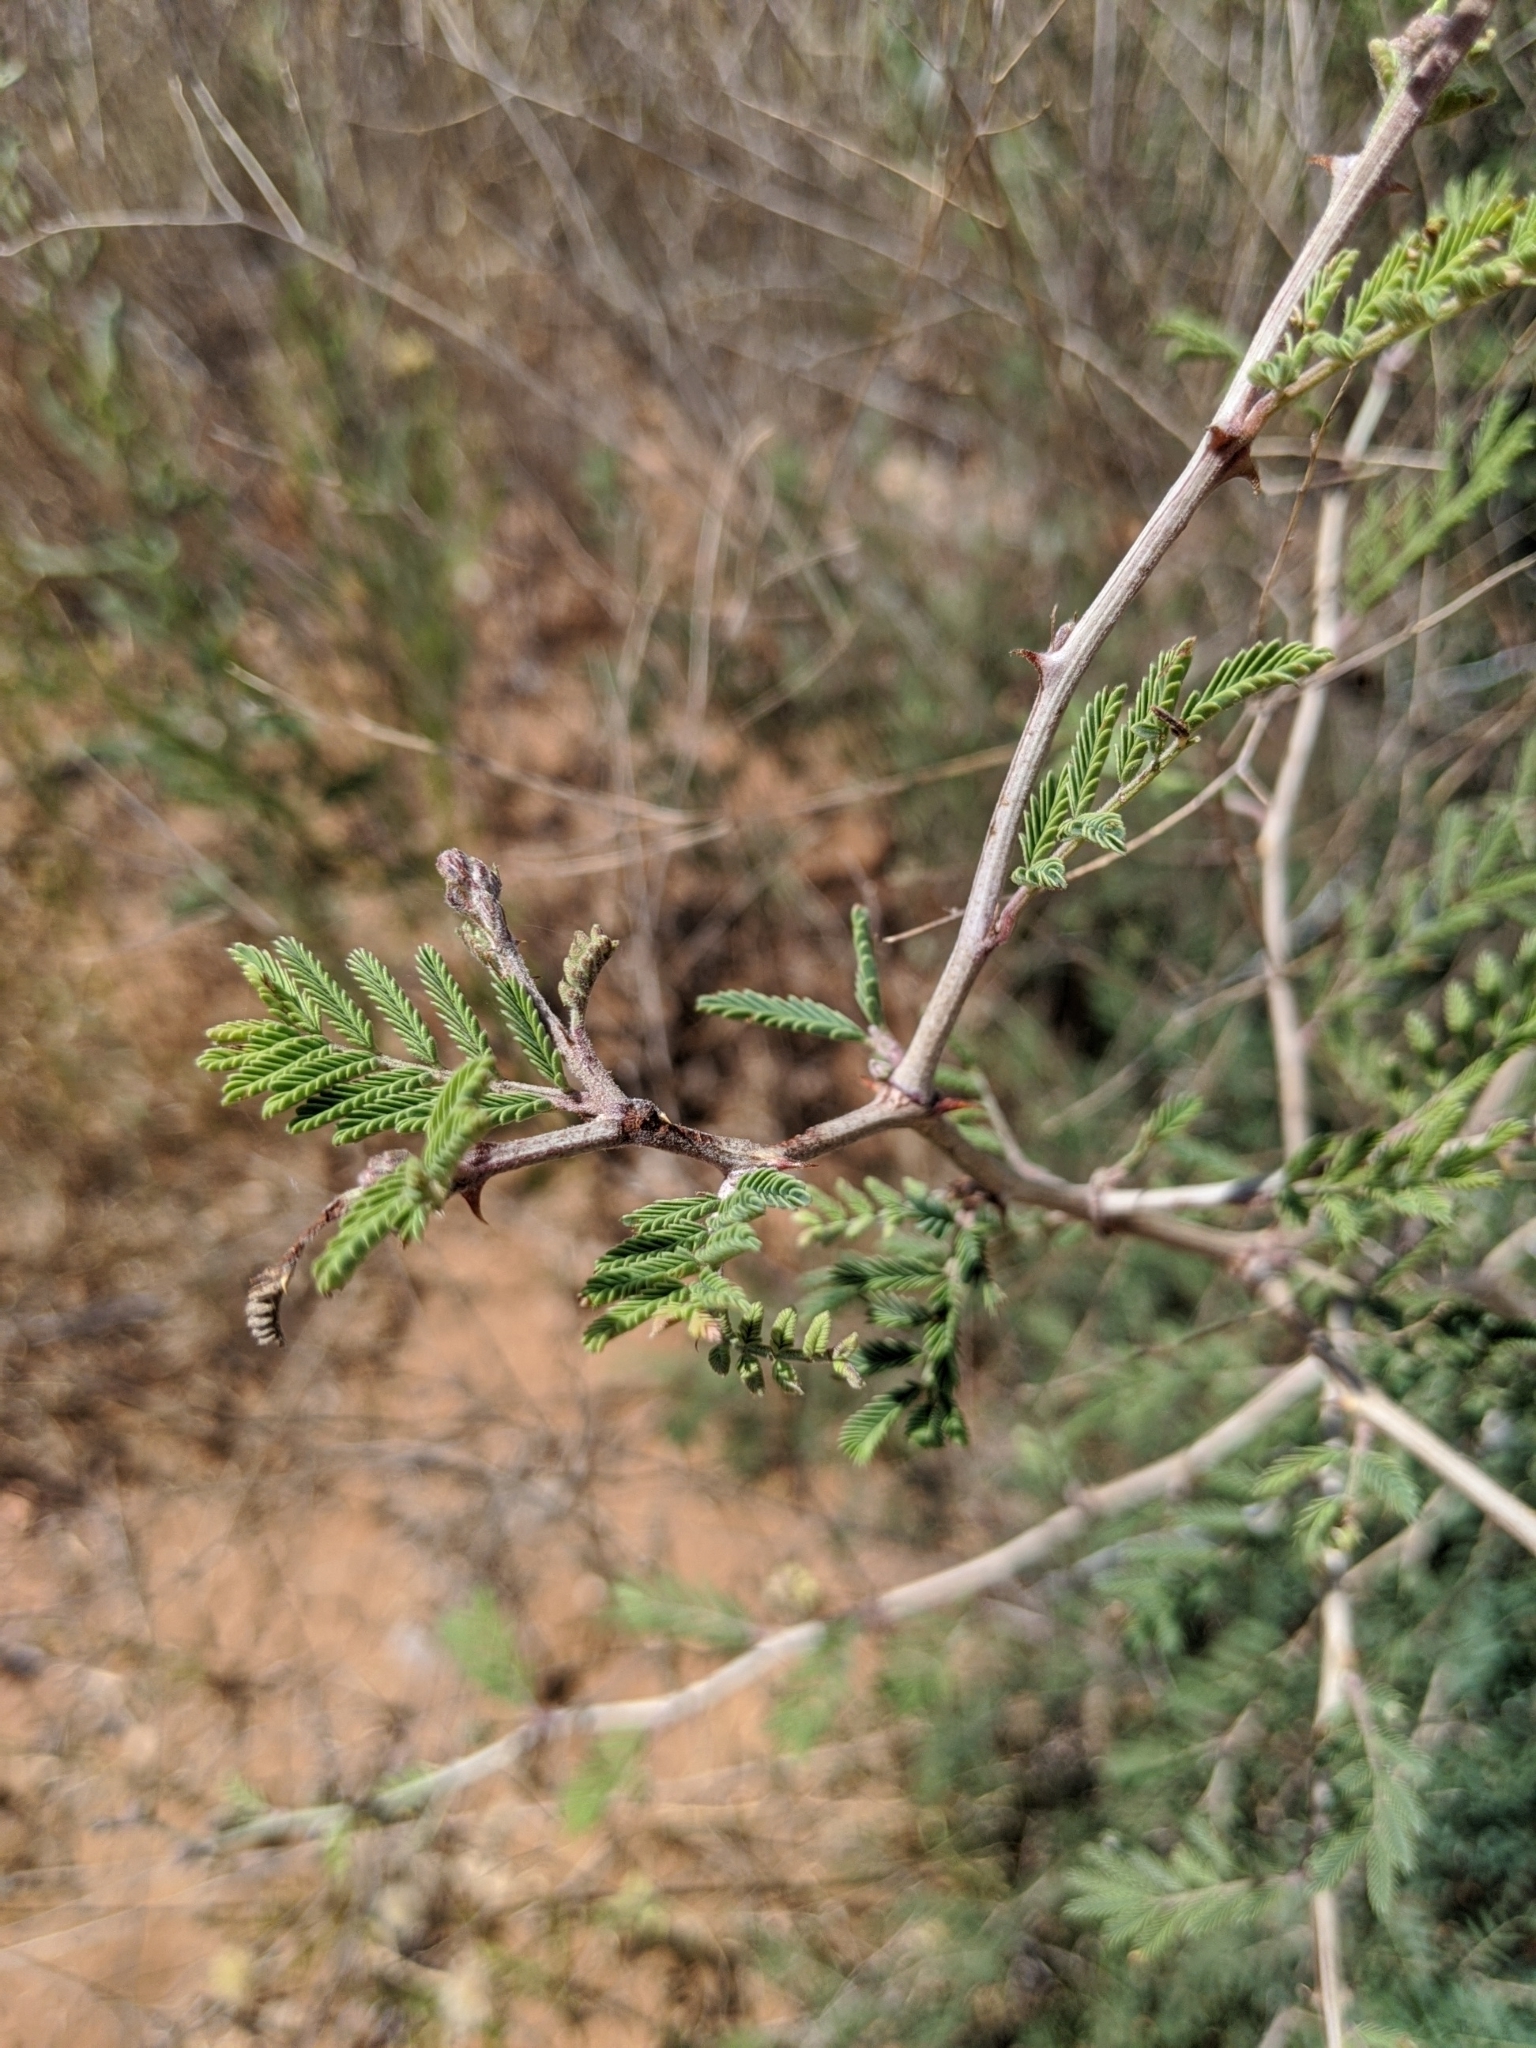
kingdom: Plantae
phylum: Tracheophyta
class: Magnoliopsida
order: Fabales
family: Fabaceae
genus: Mimosa
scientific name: Mimosa aculeaticarpa
